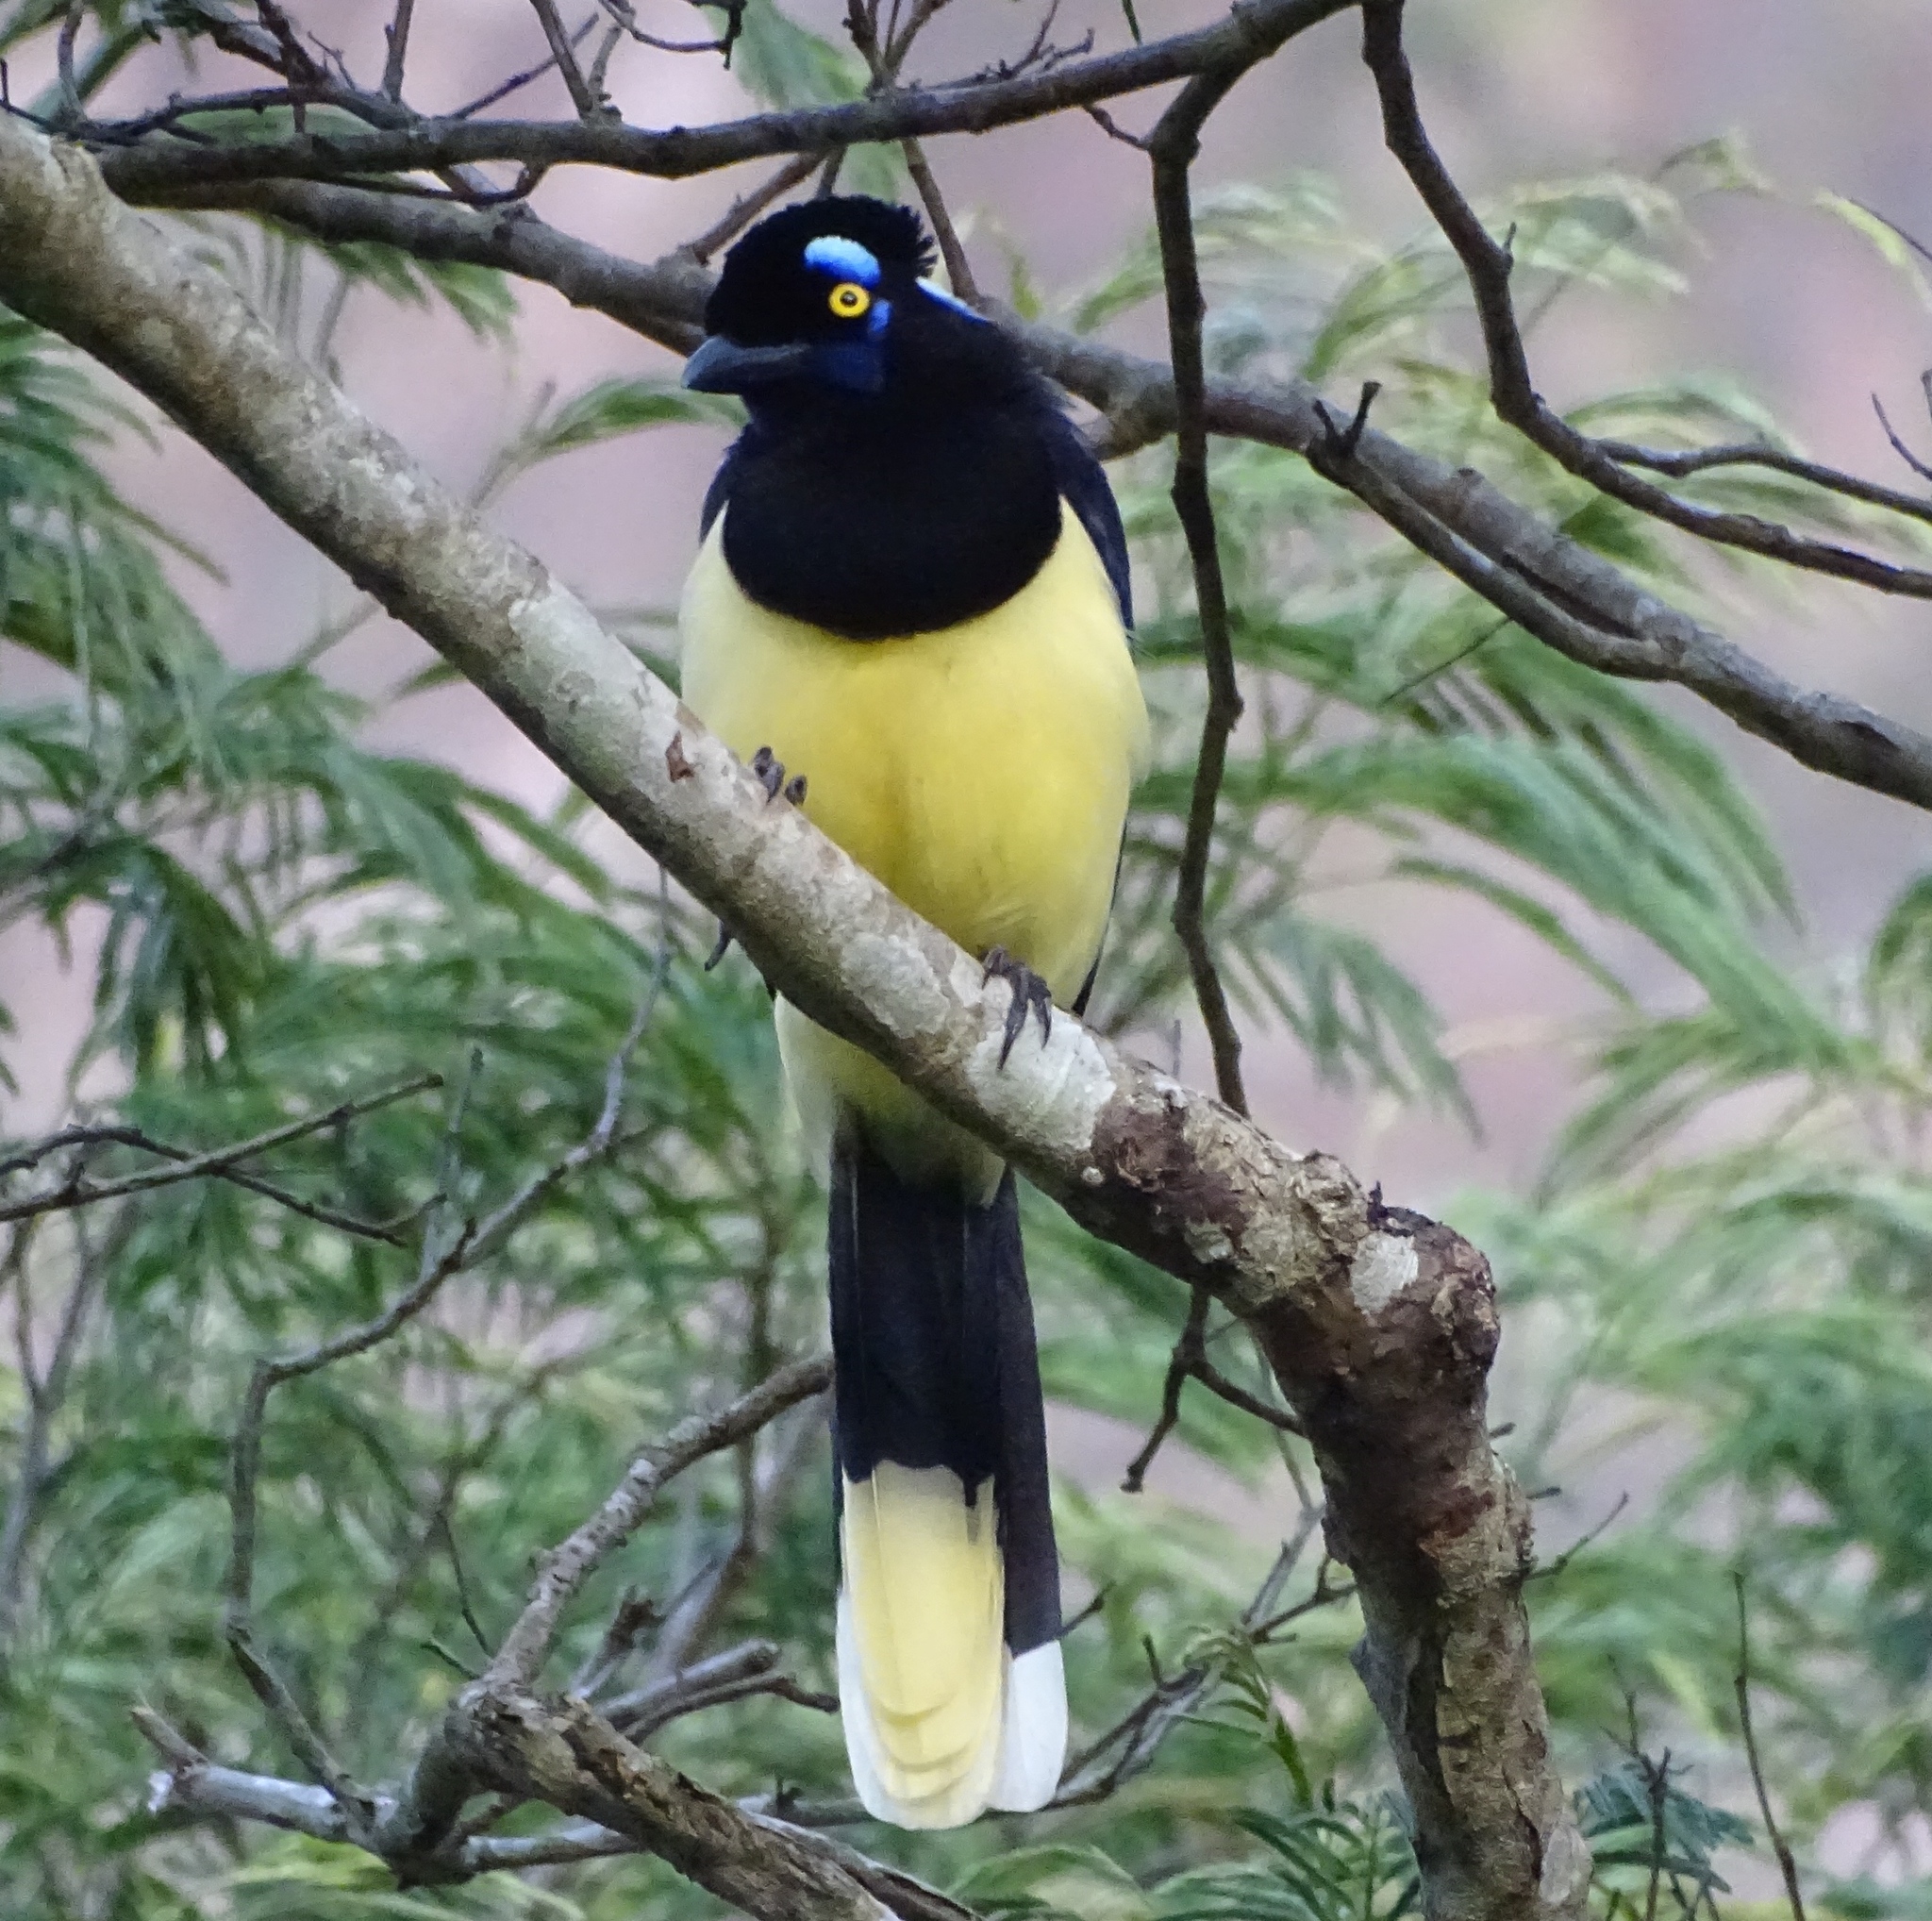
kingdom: Animalia
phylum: Chordata
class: Aves
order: Passeriformes
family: Corvidae
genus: Cyanocorax
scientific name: Cyanocorax chrysops
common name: Plush-crested jay
